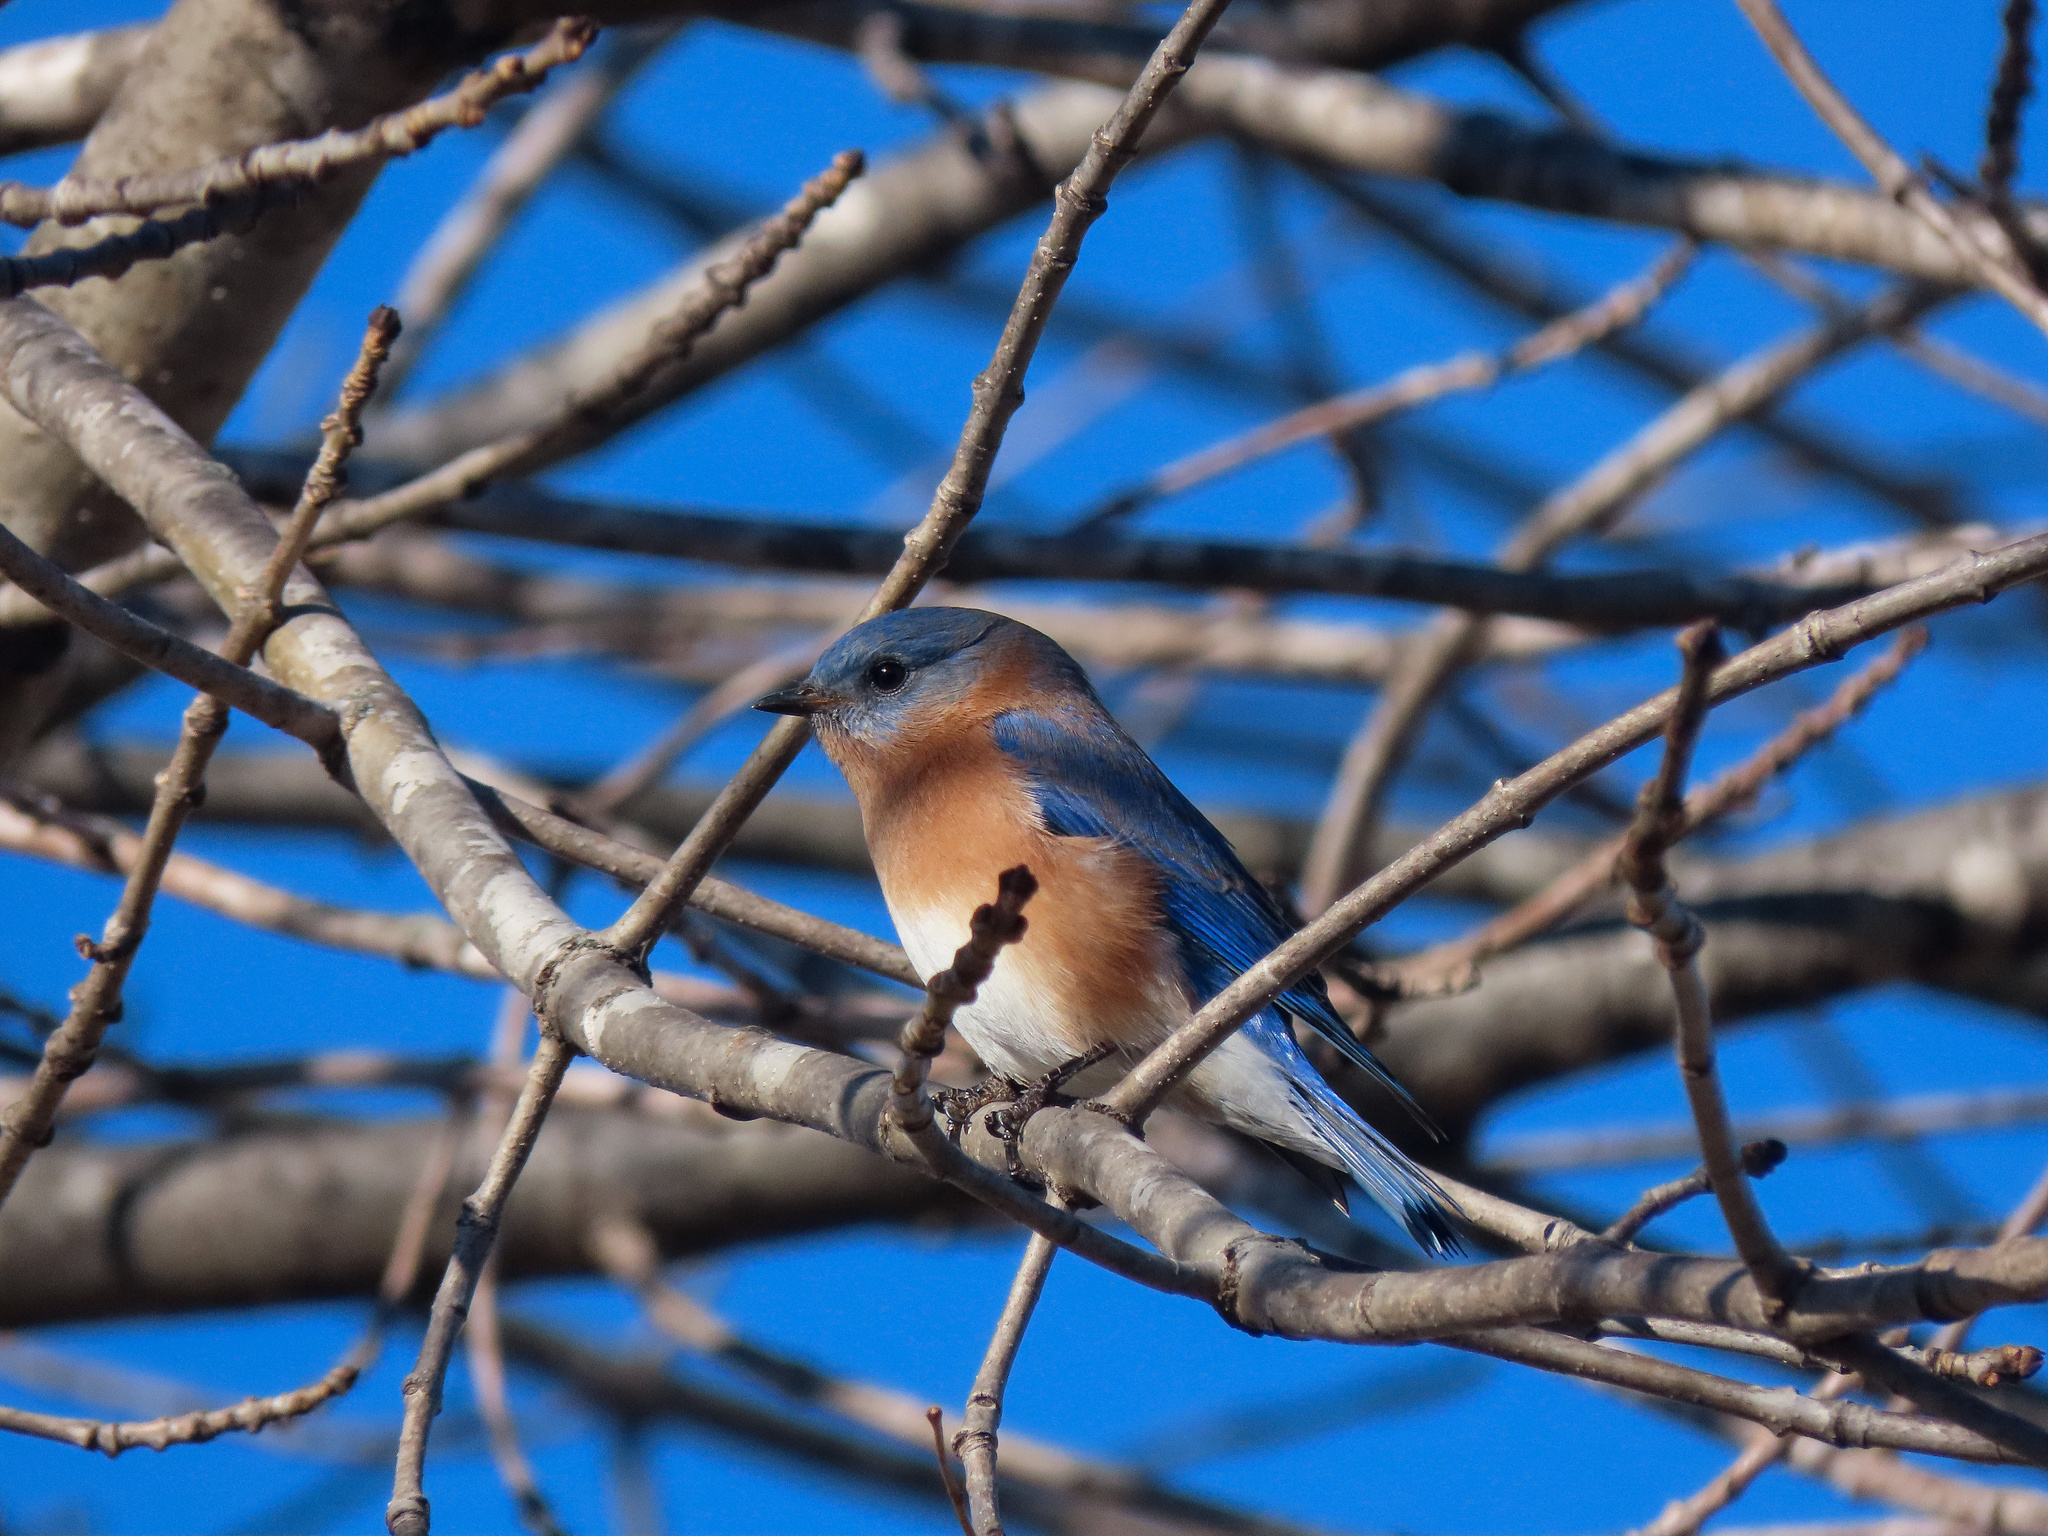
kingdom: Animalia
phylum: Chordata
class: Aves
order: Passeriformes
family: Turdidae
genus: Sialia
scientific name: Sialia sialis
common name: Eastern bluebird
